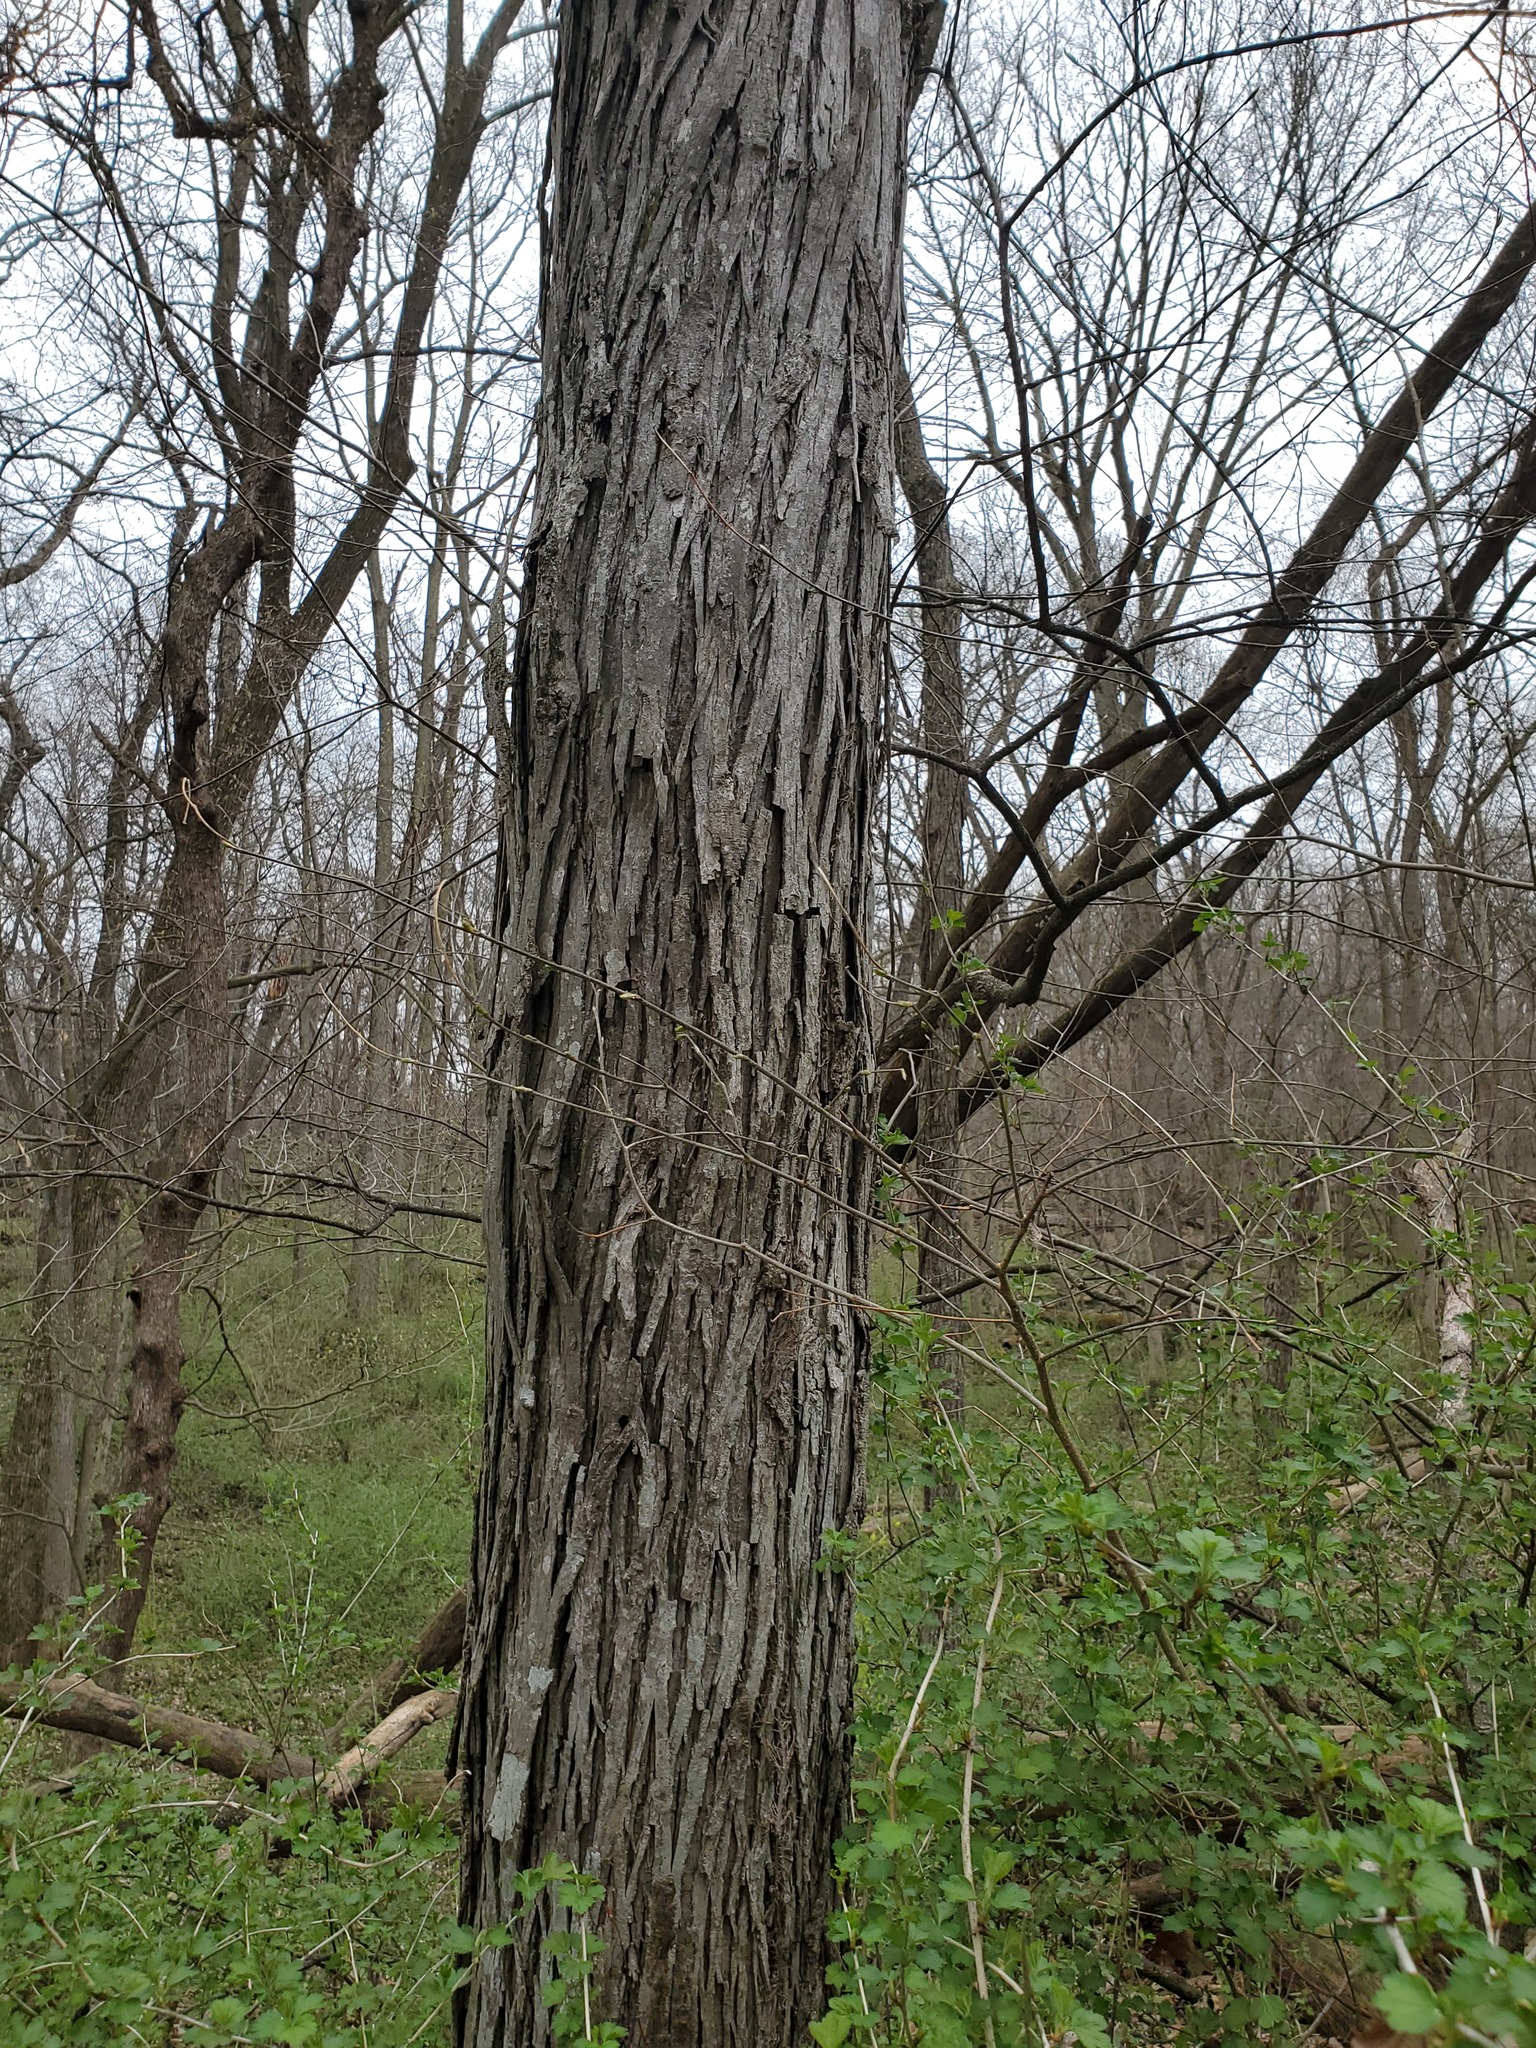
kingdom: Plantae
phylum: Tracheophyta
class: Magnoliopsida
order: Fagales
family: Juglandaceae
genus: Carya
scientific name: Carya ovata
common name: Shagbark hickory
